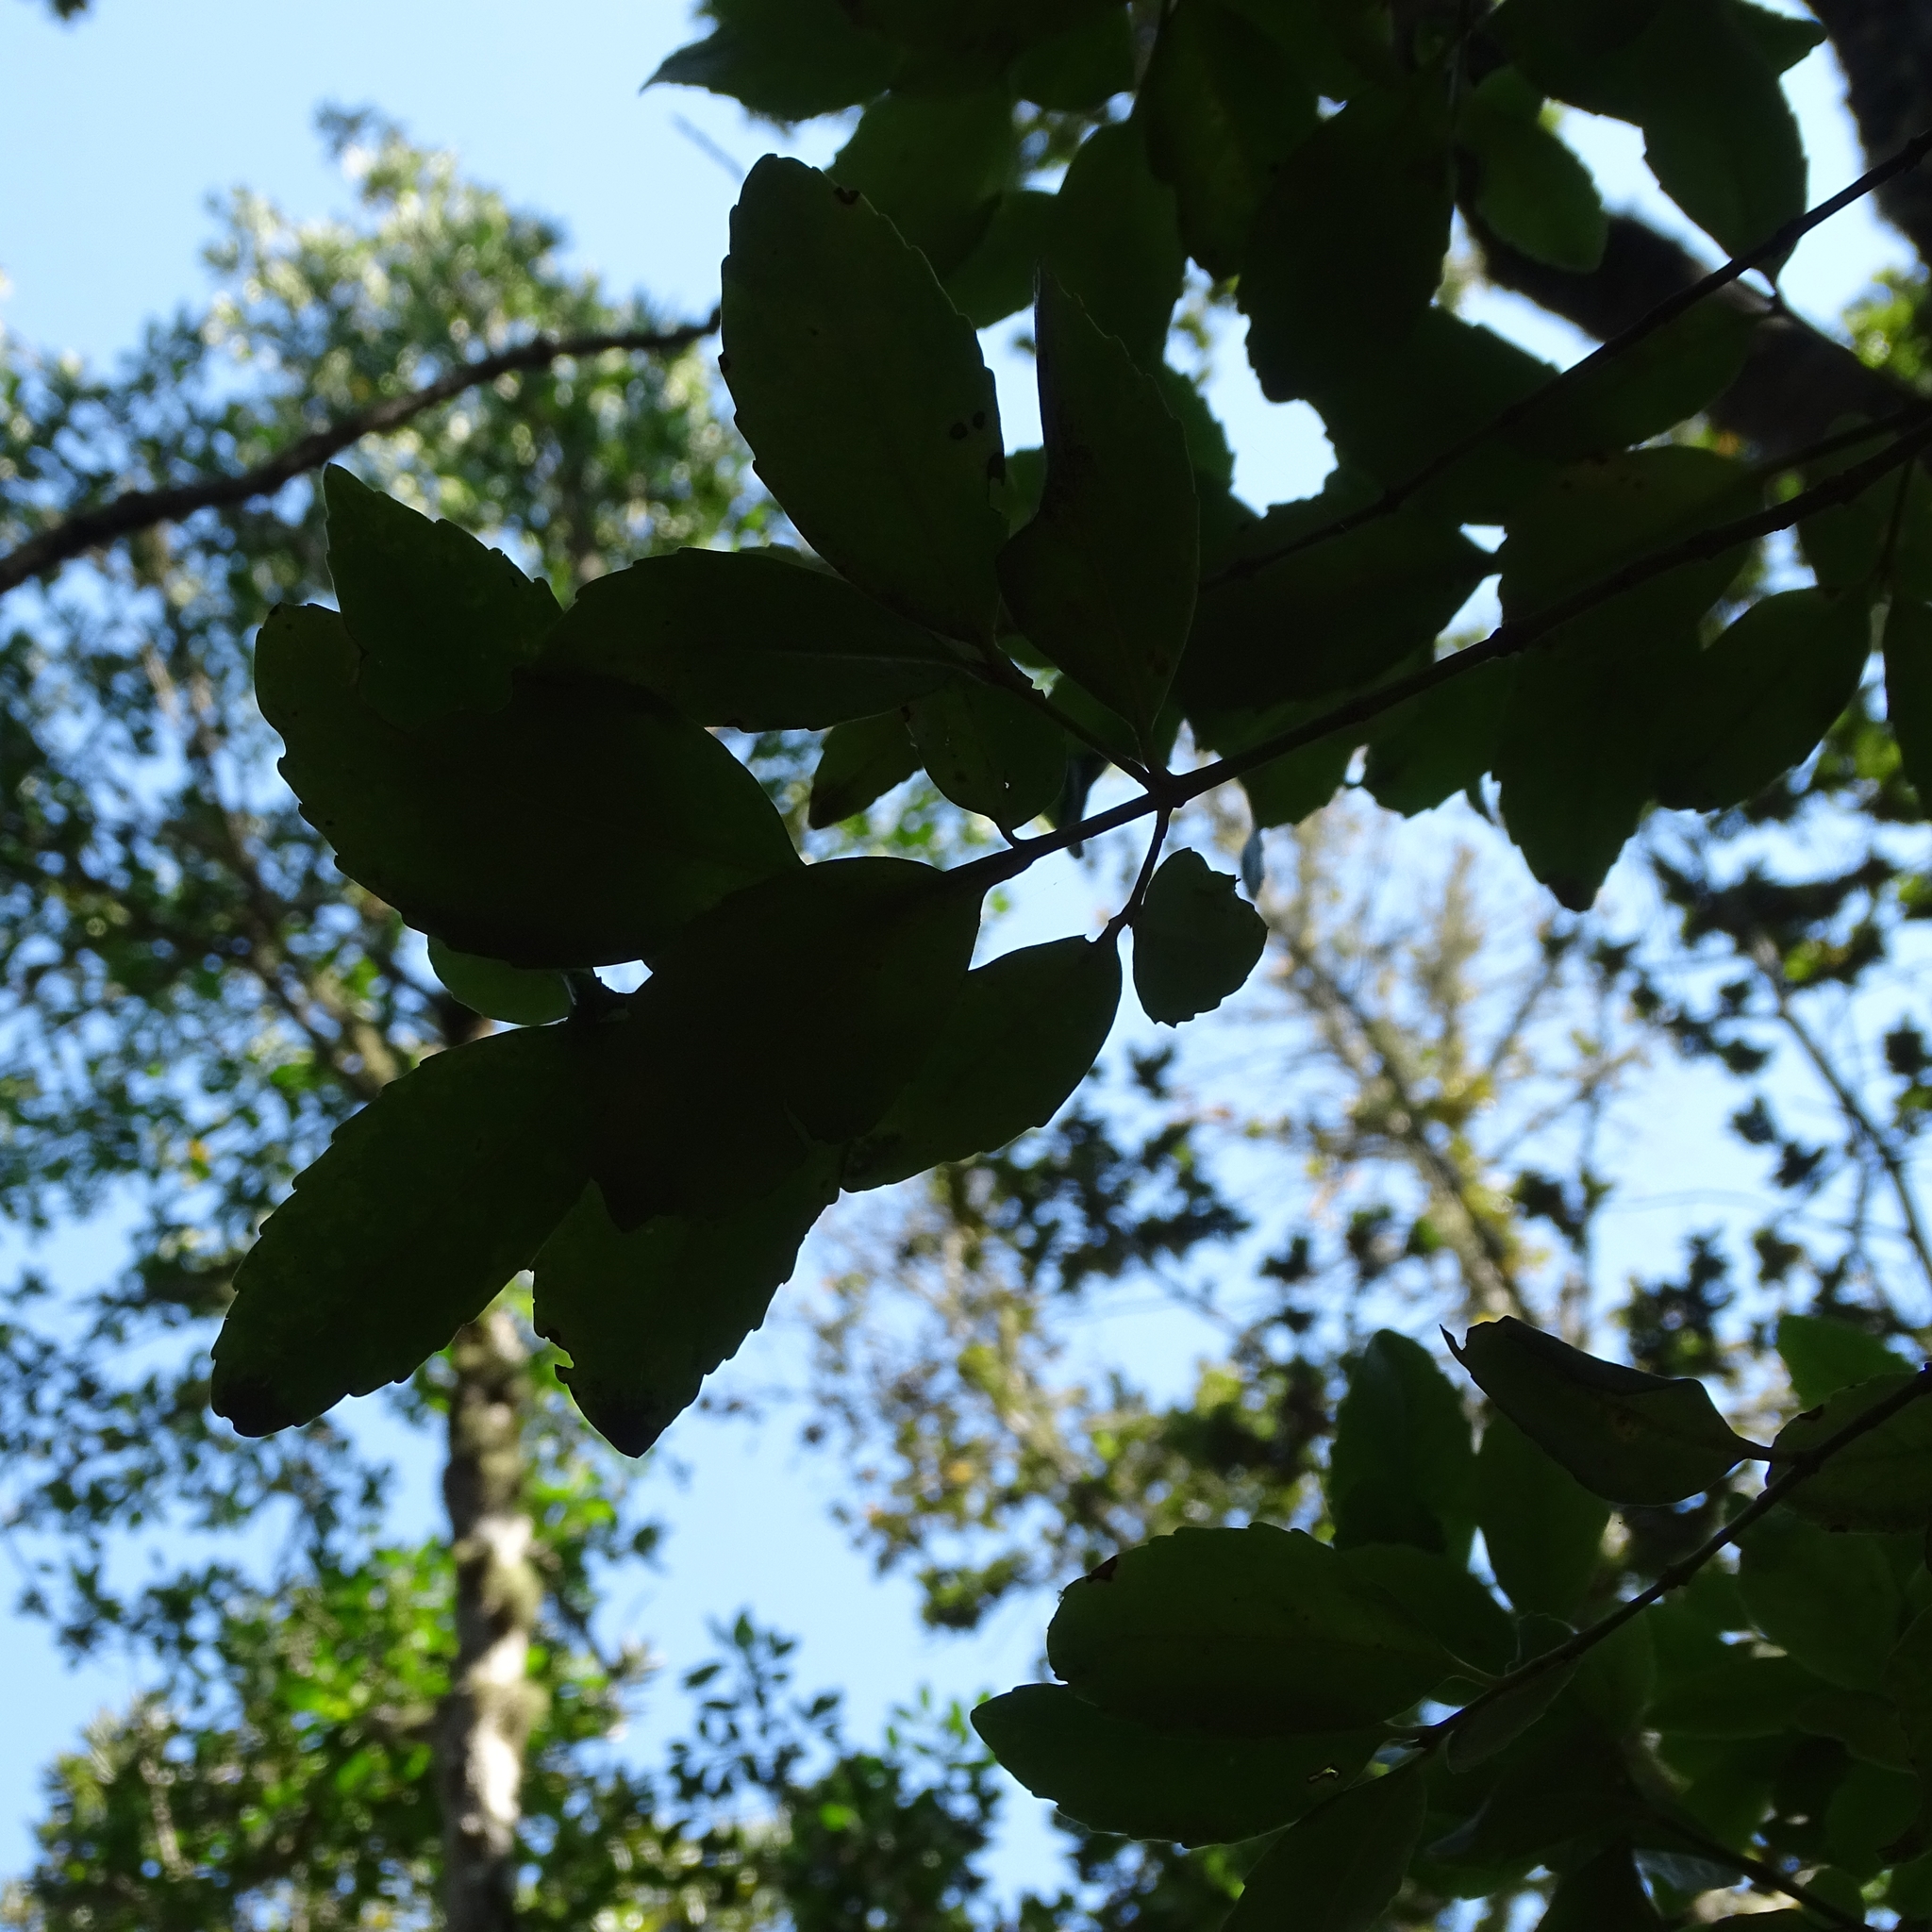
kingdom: Plantae
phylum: Tracheophyta
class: Magnoliopsida
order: Laurales
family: Atherospermataceae
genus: Laurelia
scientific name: Laurelia sempervirens
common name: Chilean laurel
